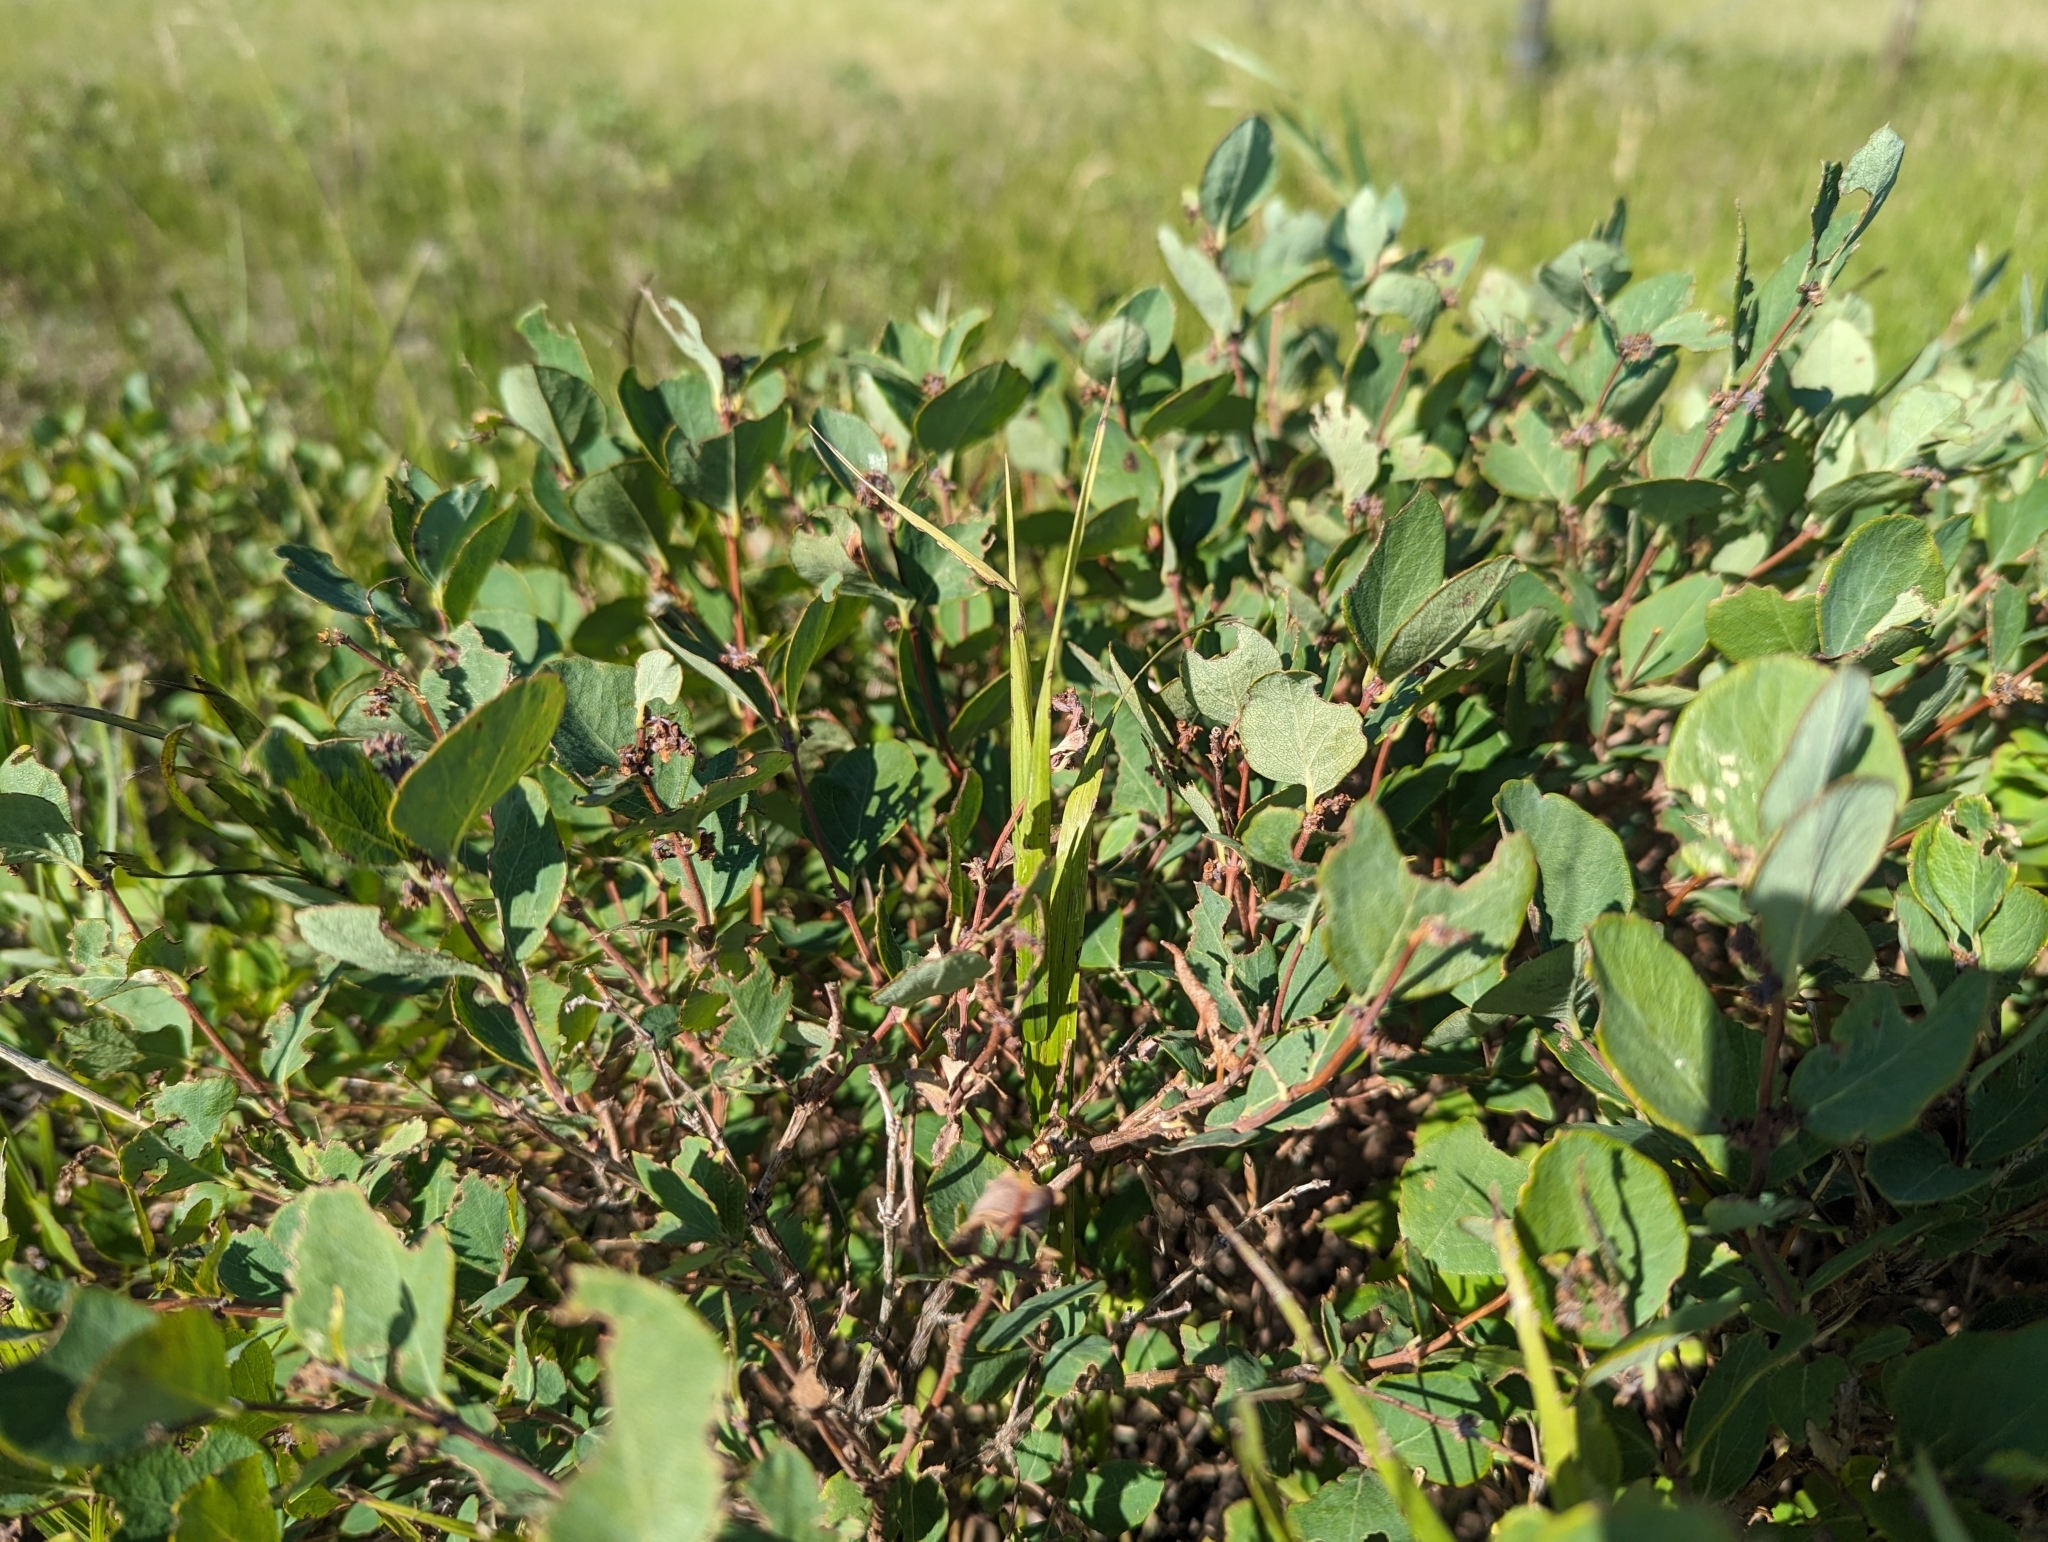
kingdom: Plantae
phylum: Tracheophyta
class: Magnoliopsida
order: Dipsacales
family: Caprifoliaceae
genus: Symphoricarpos
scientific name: Symphoricarpos occidentalis
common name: Wolfberry
